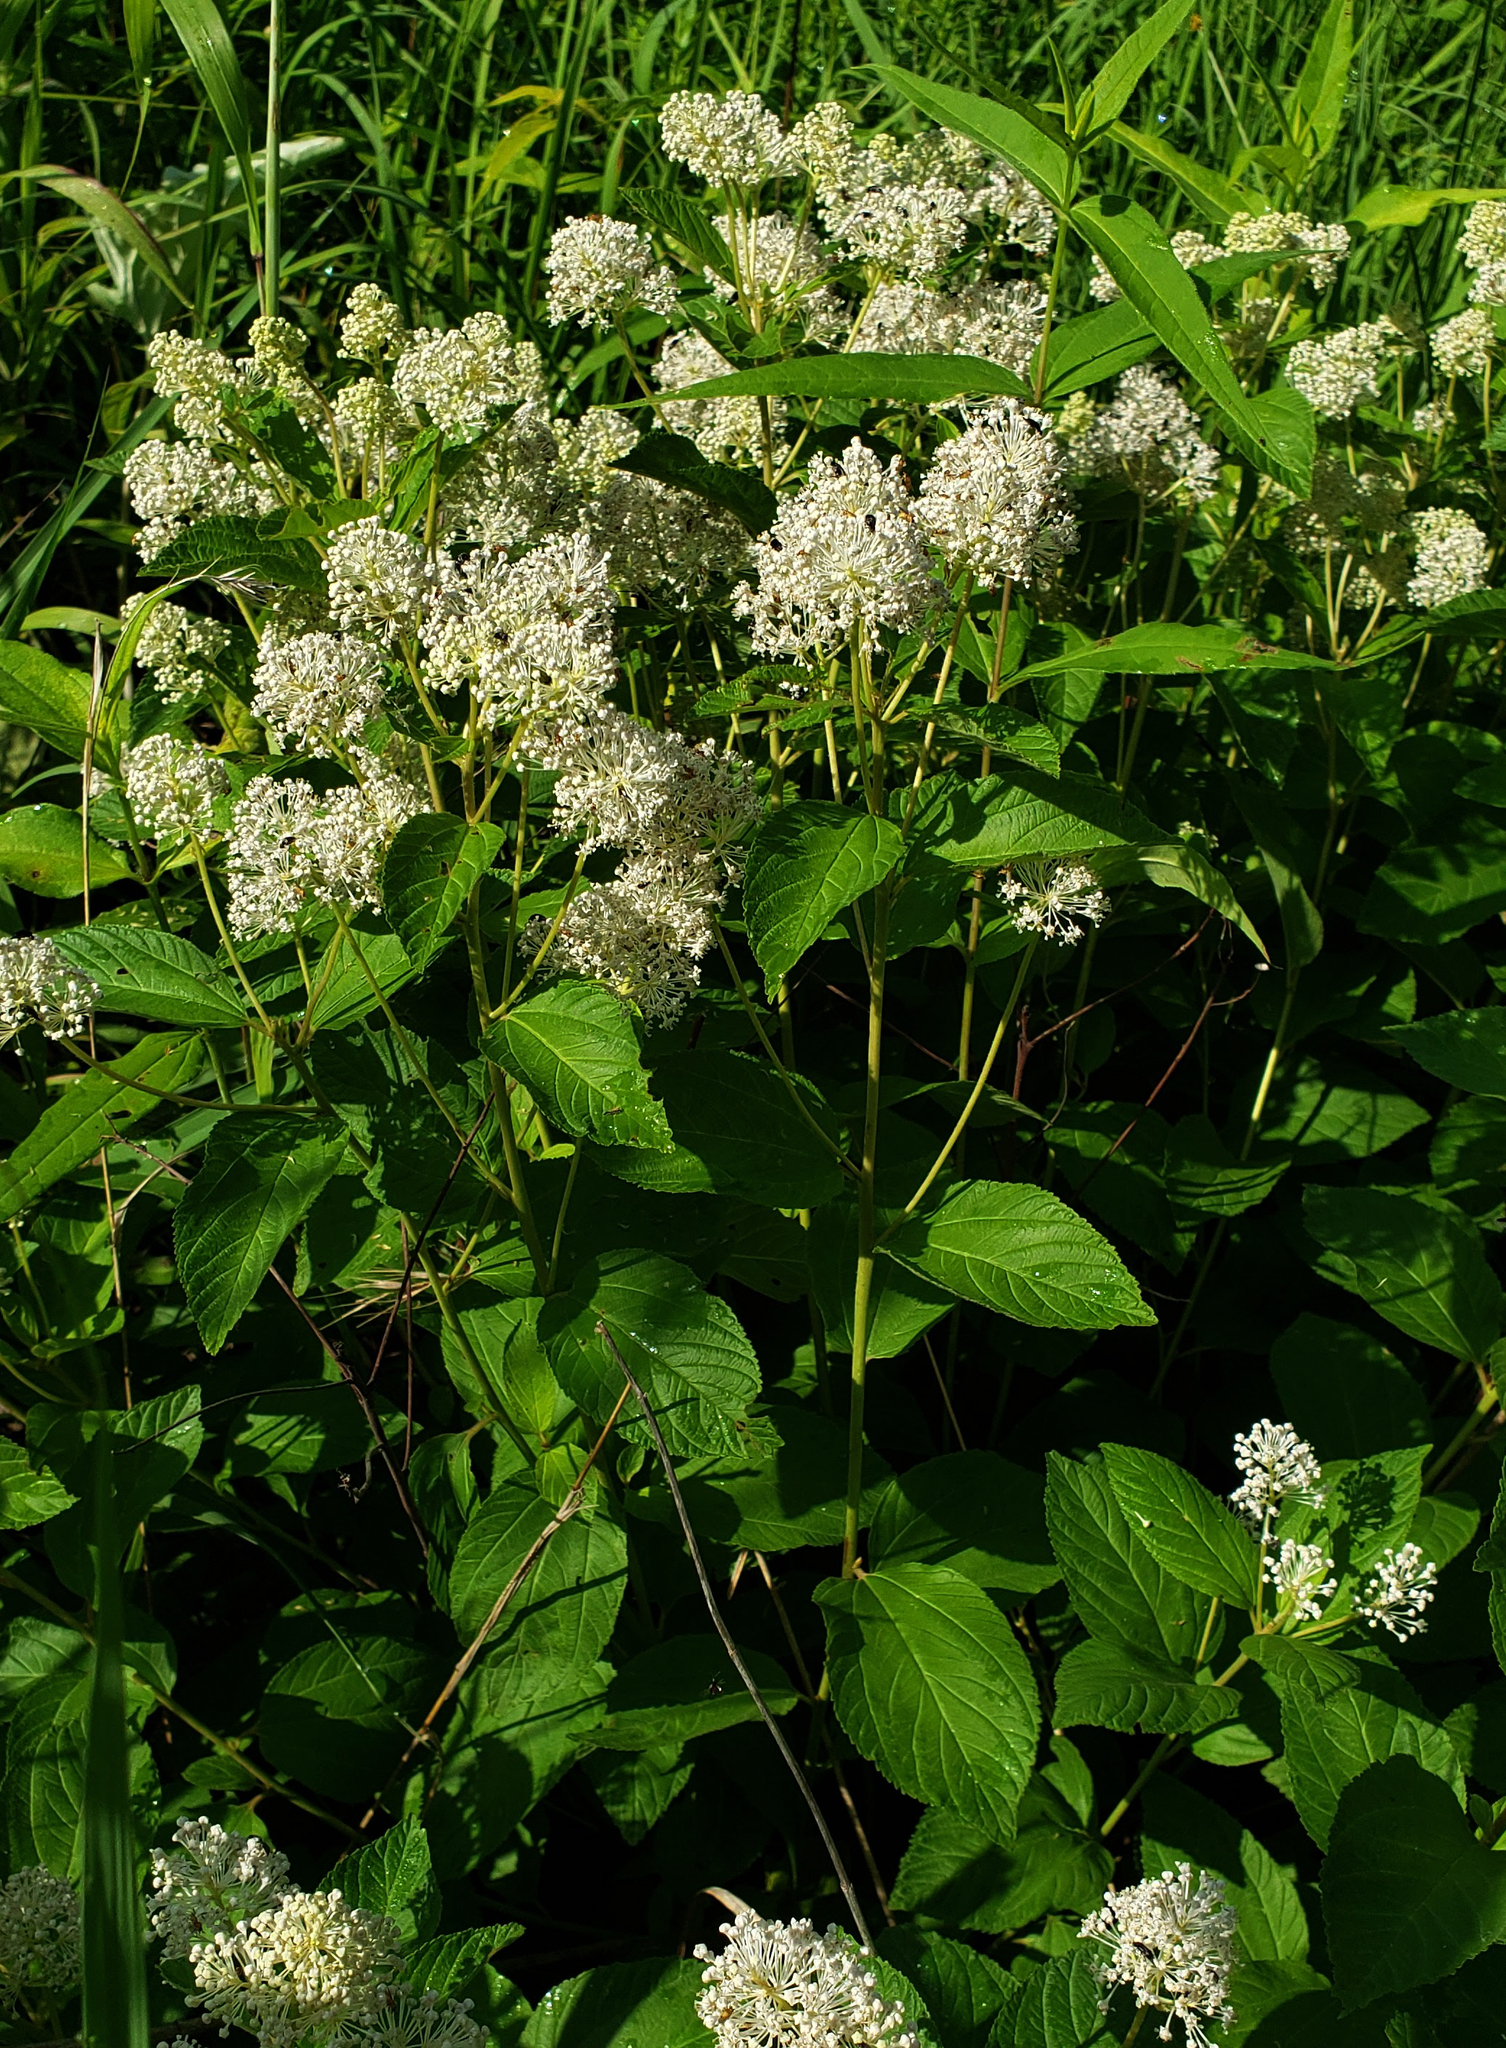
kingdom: Plantae
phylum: Tracheophyta
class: Magnoliopsida
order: Rosales
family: Rhamnaceae
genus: Ceanothus
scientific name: Ceanothus americanus
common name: Redroot
